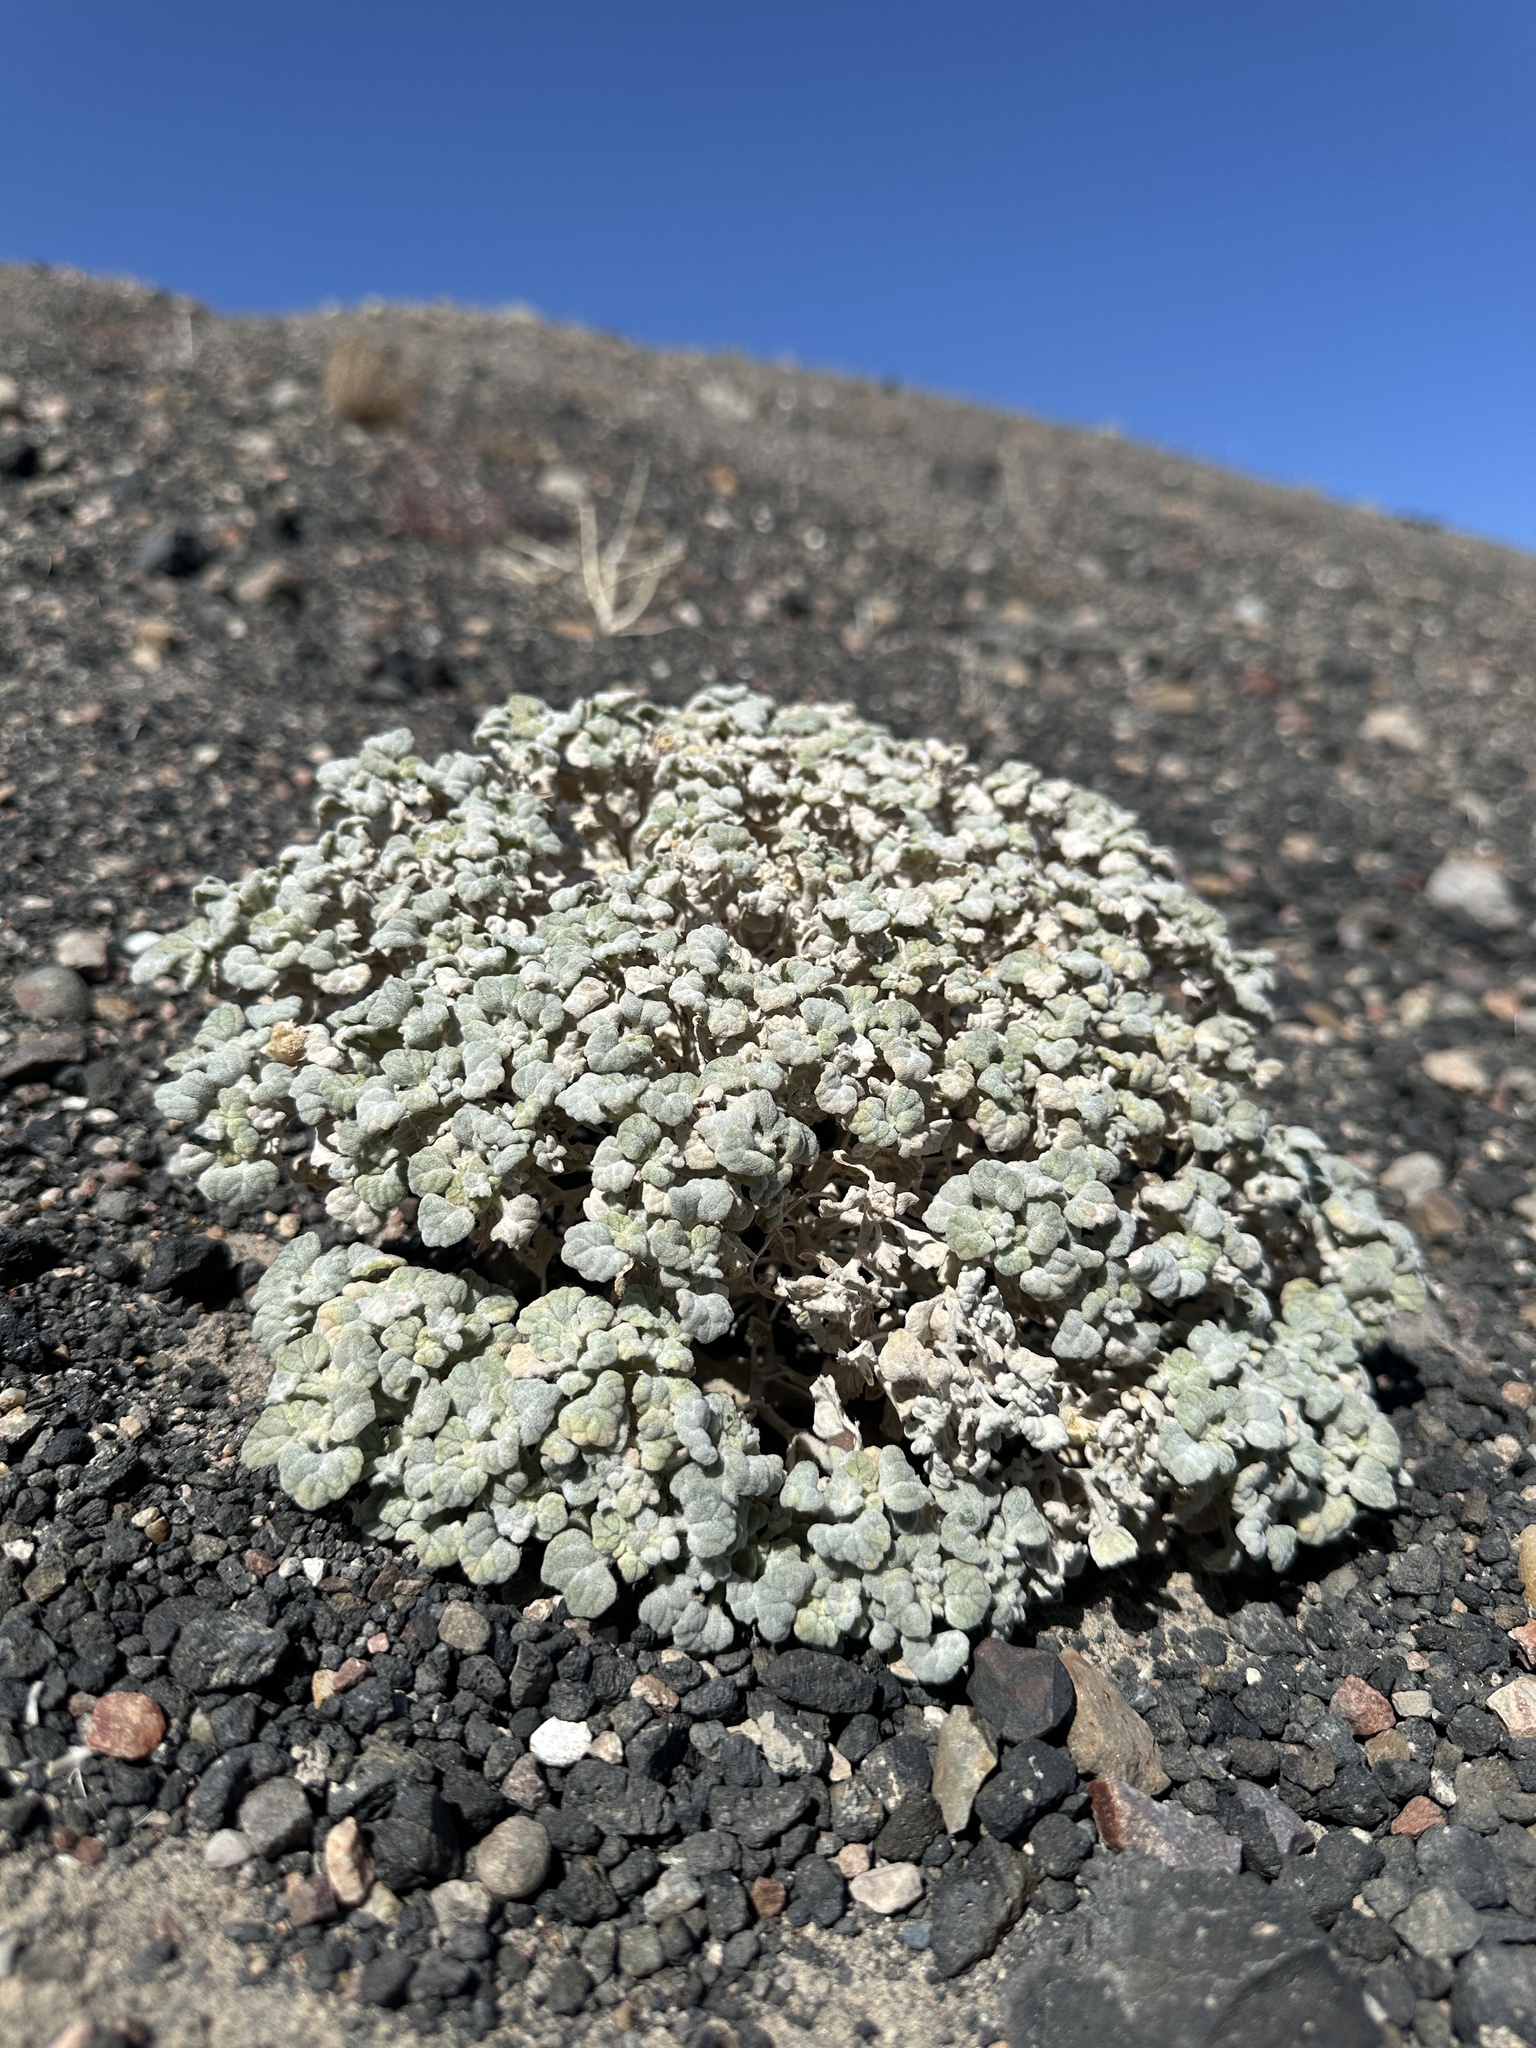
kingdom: Plantae
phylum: Tracheophyta
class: Magnoliopsida
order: Asterales
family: Asteraceae
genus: Psathyrotes
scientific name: Psathyrotes ramosissima
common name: Turtleback
